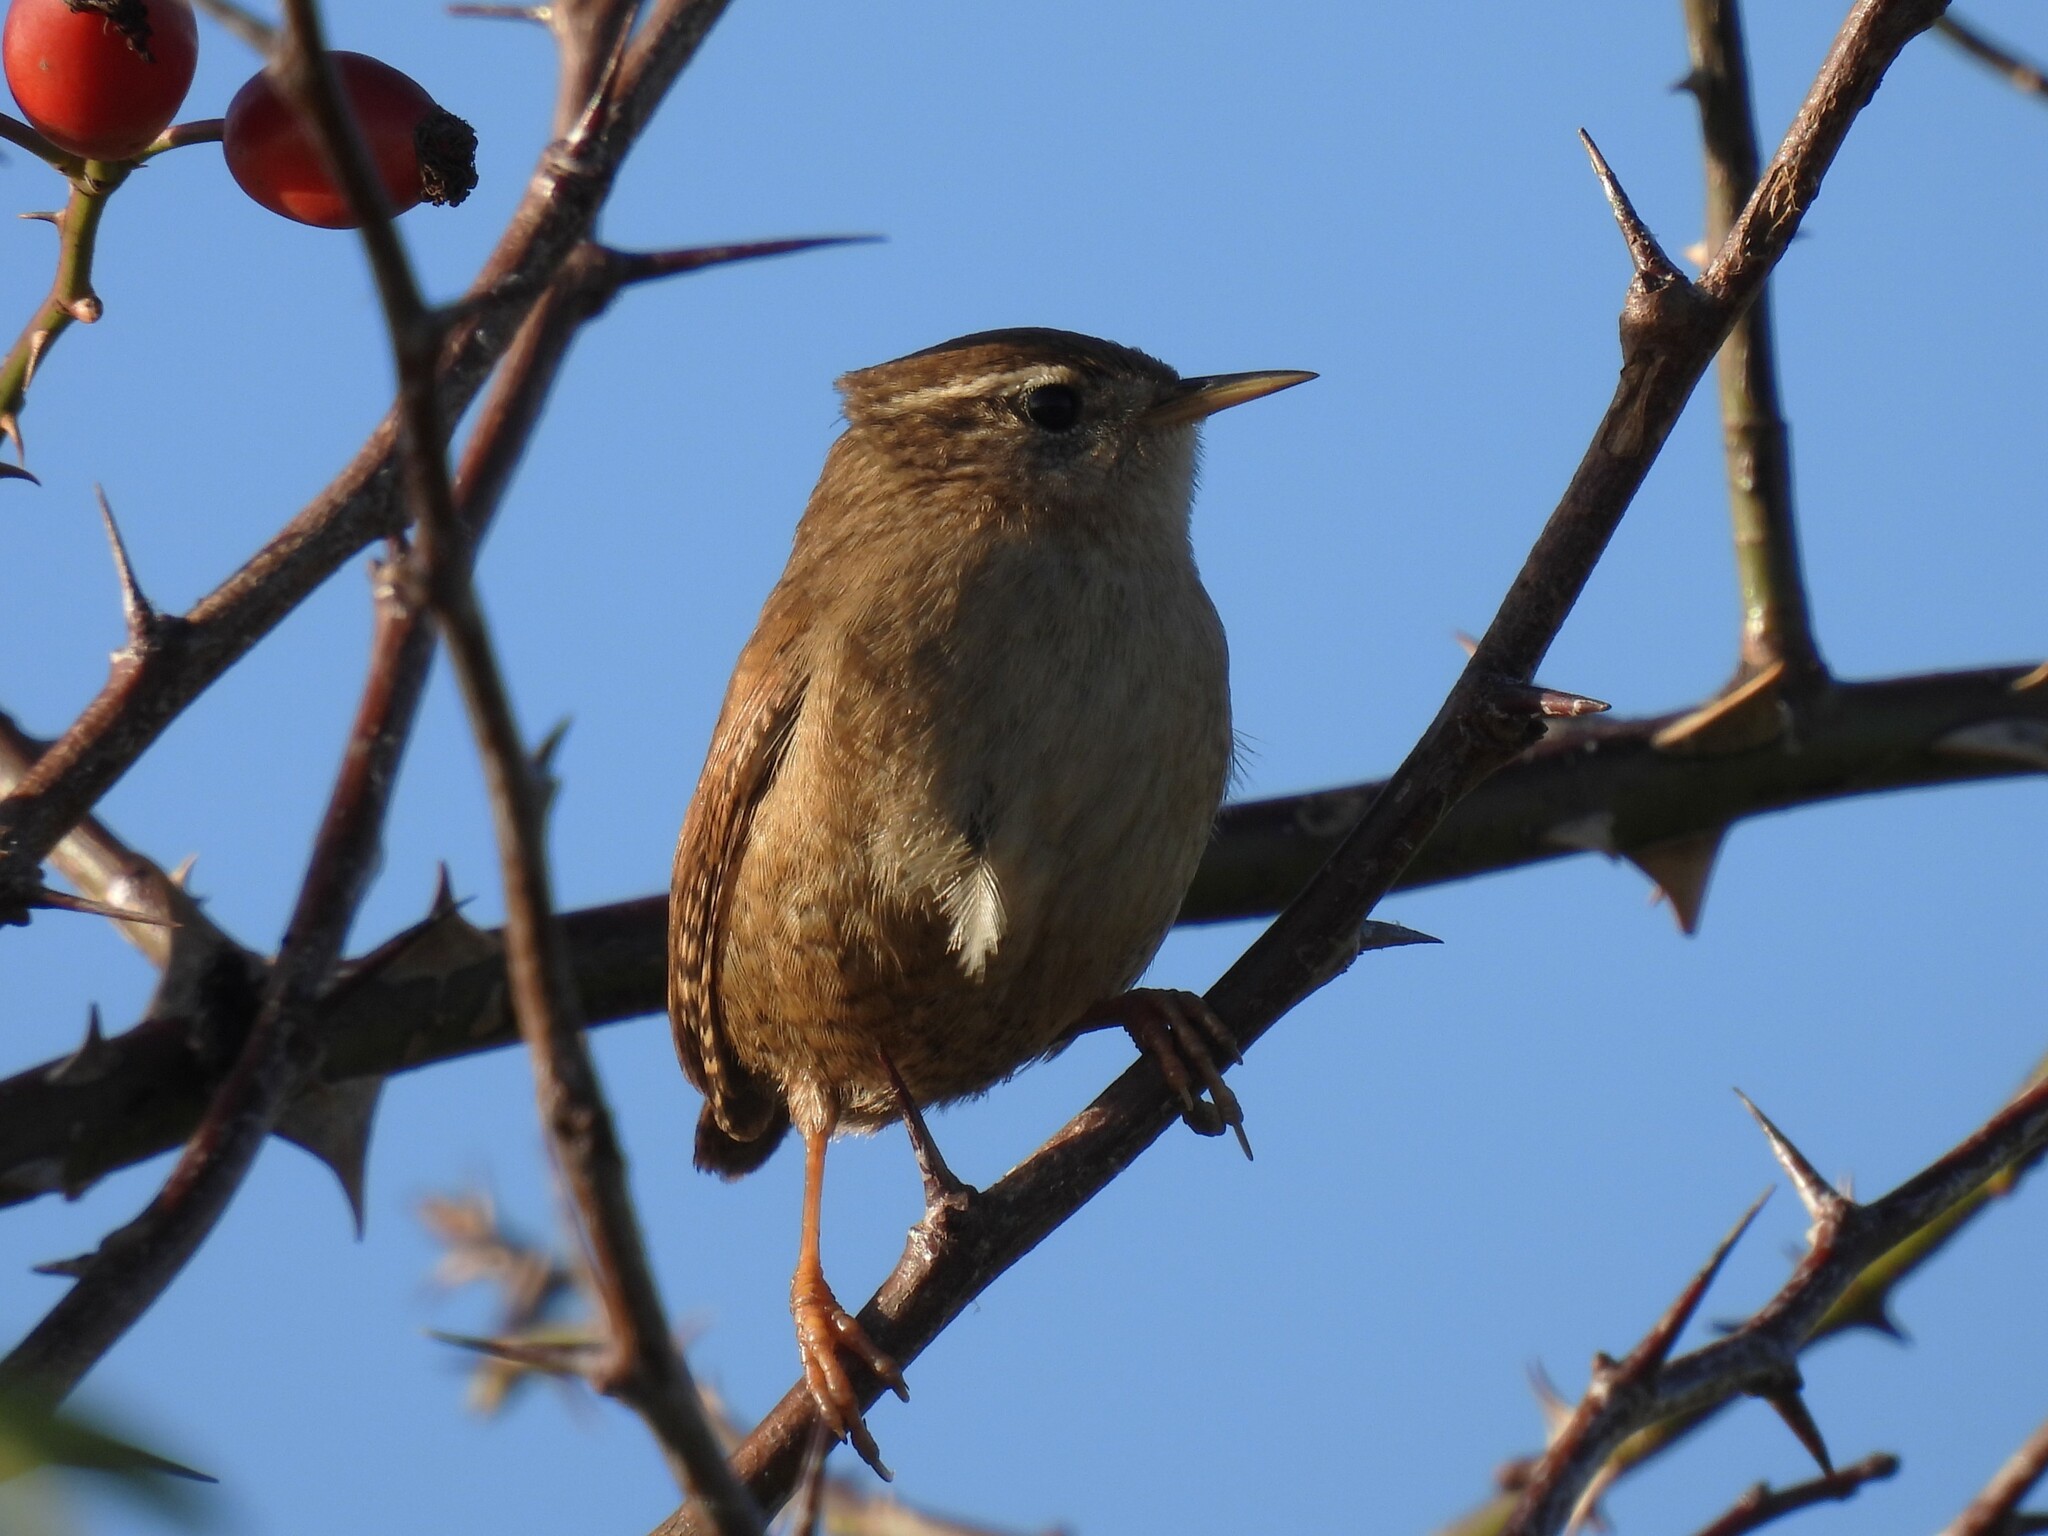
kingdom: Animalia
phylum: Chordata
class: Aves
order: Passeriformes
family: Troglodytidae
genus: Troglodytes
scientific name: Troglodytes troglodytes
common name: Eurasian wren
